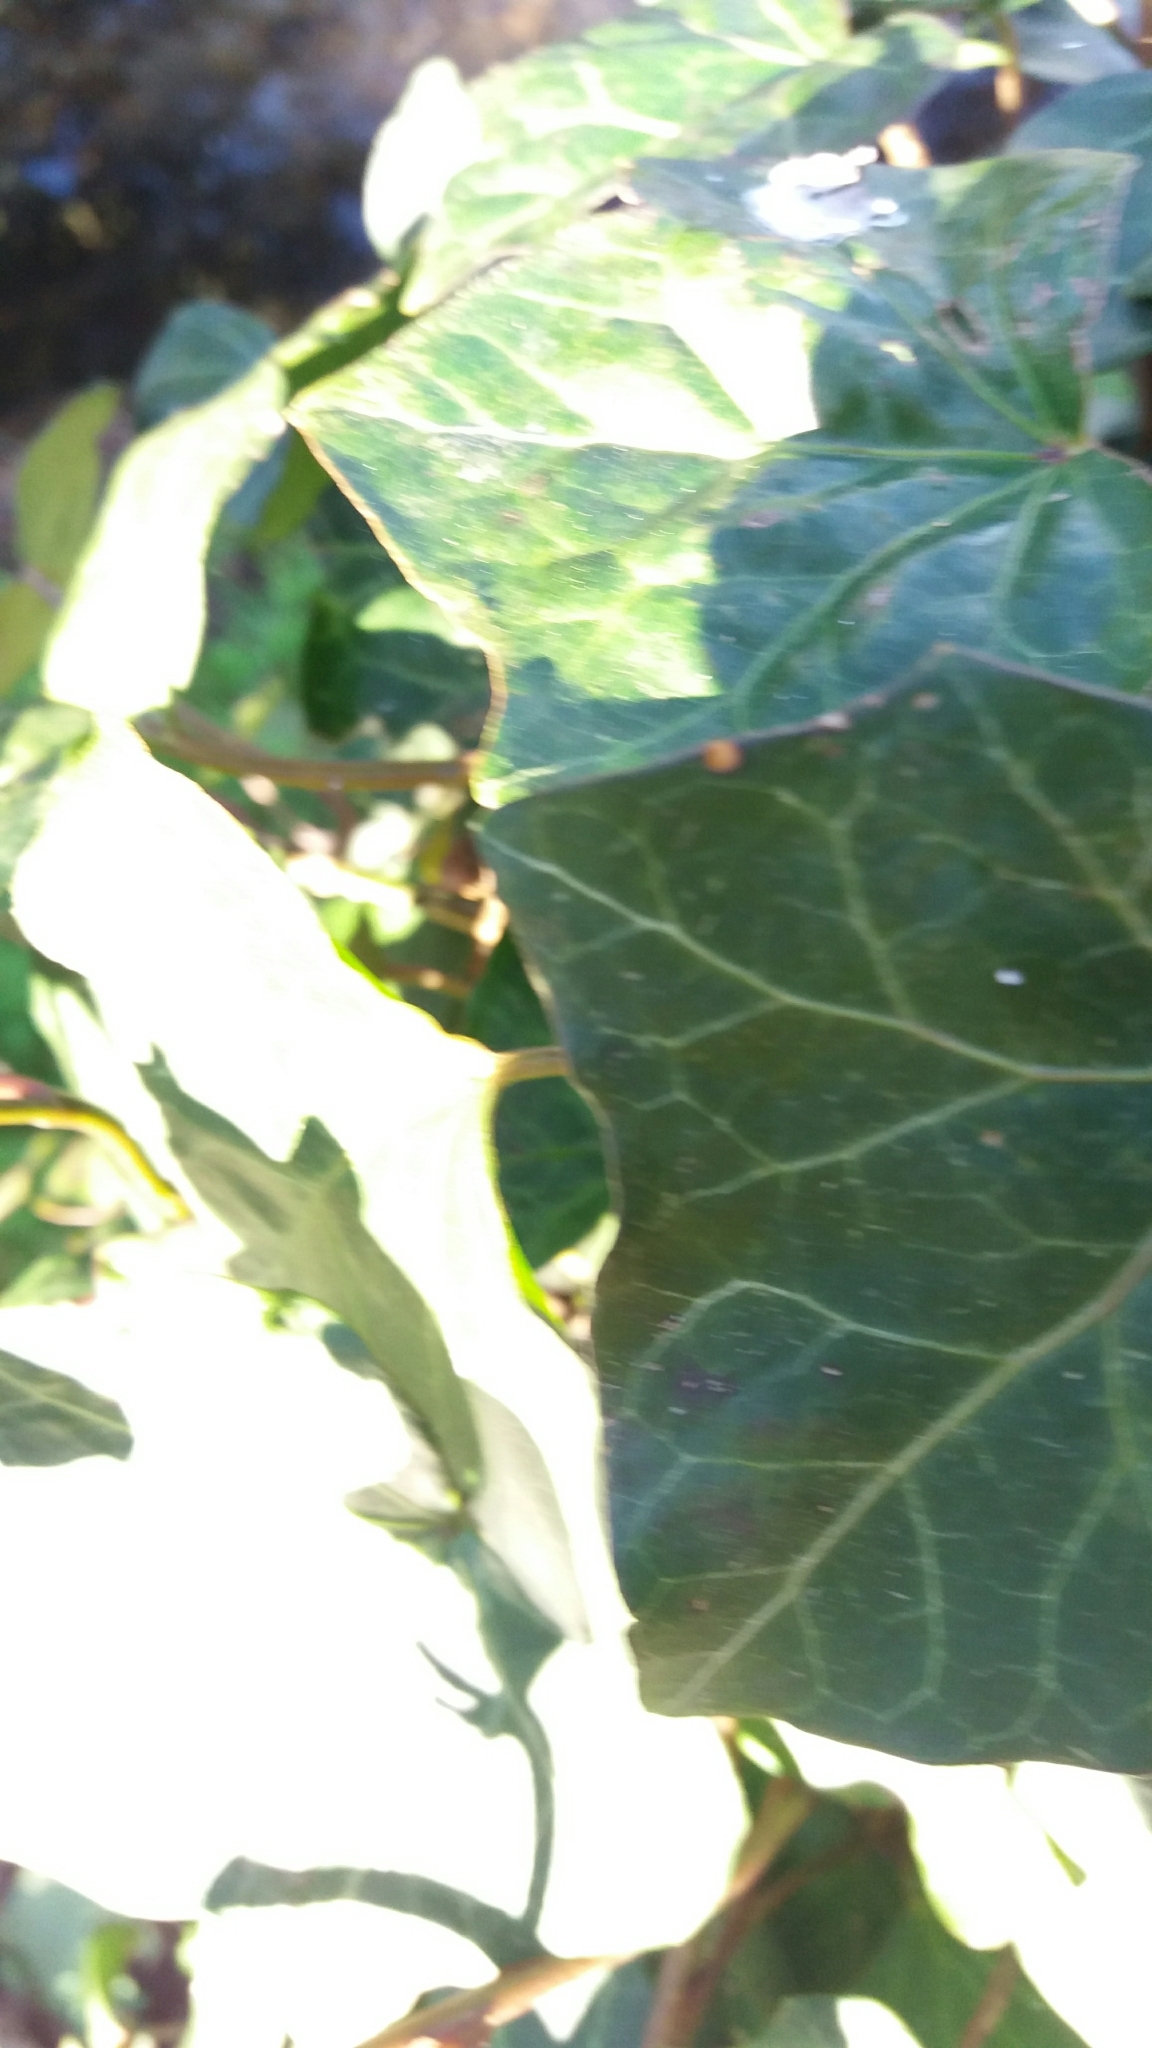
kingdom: Plantae
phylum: Tracheophyta
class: Magnoliopsida
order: Apiales
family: Araliaceae
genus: Hedera
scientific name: Hedera helix
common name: Ivy
